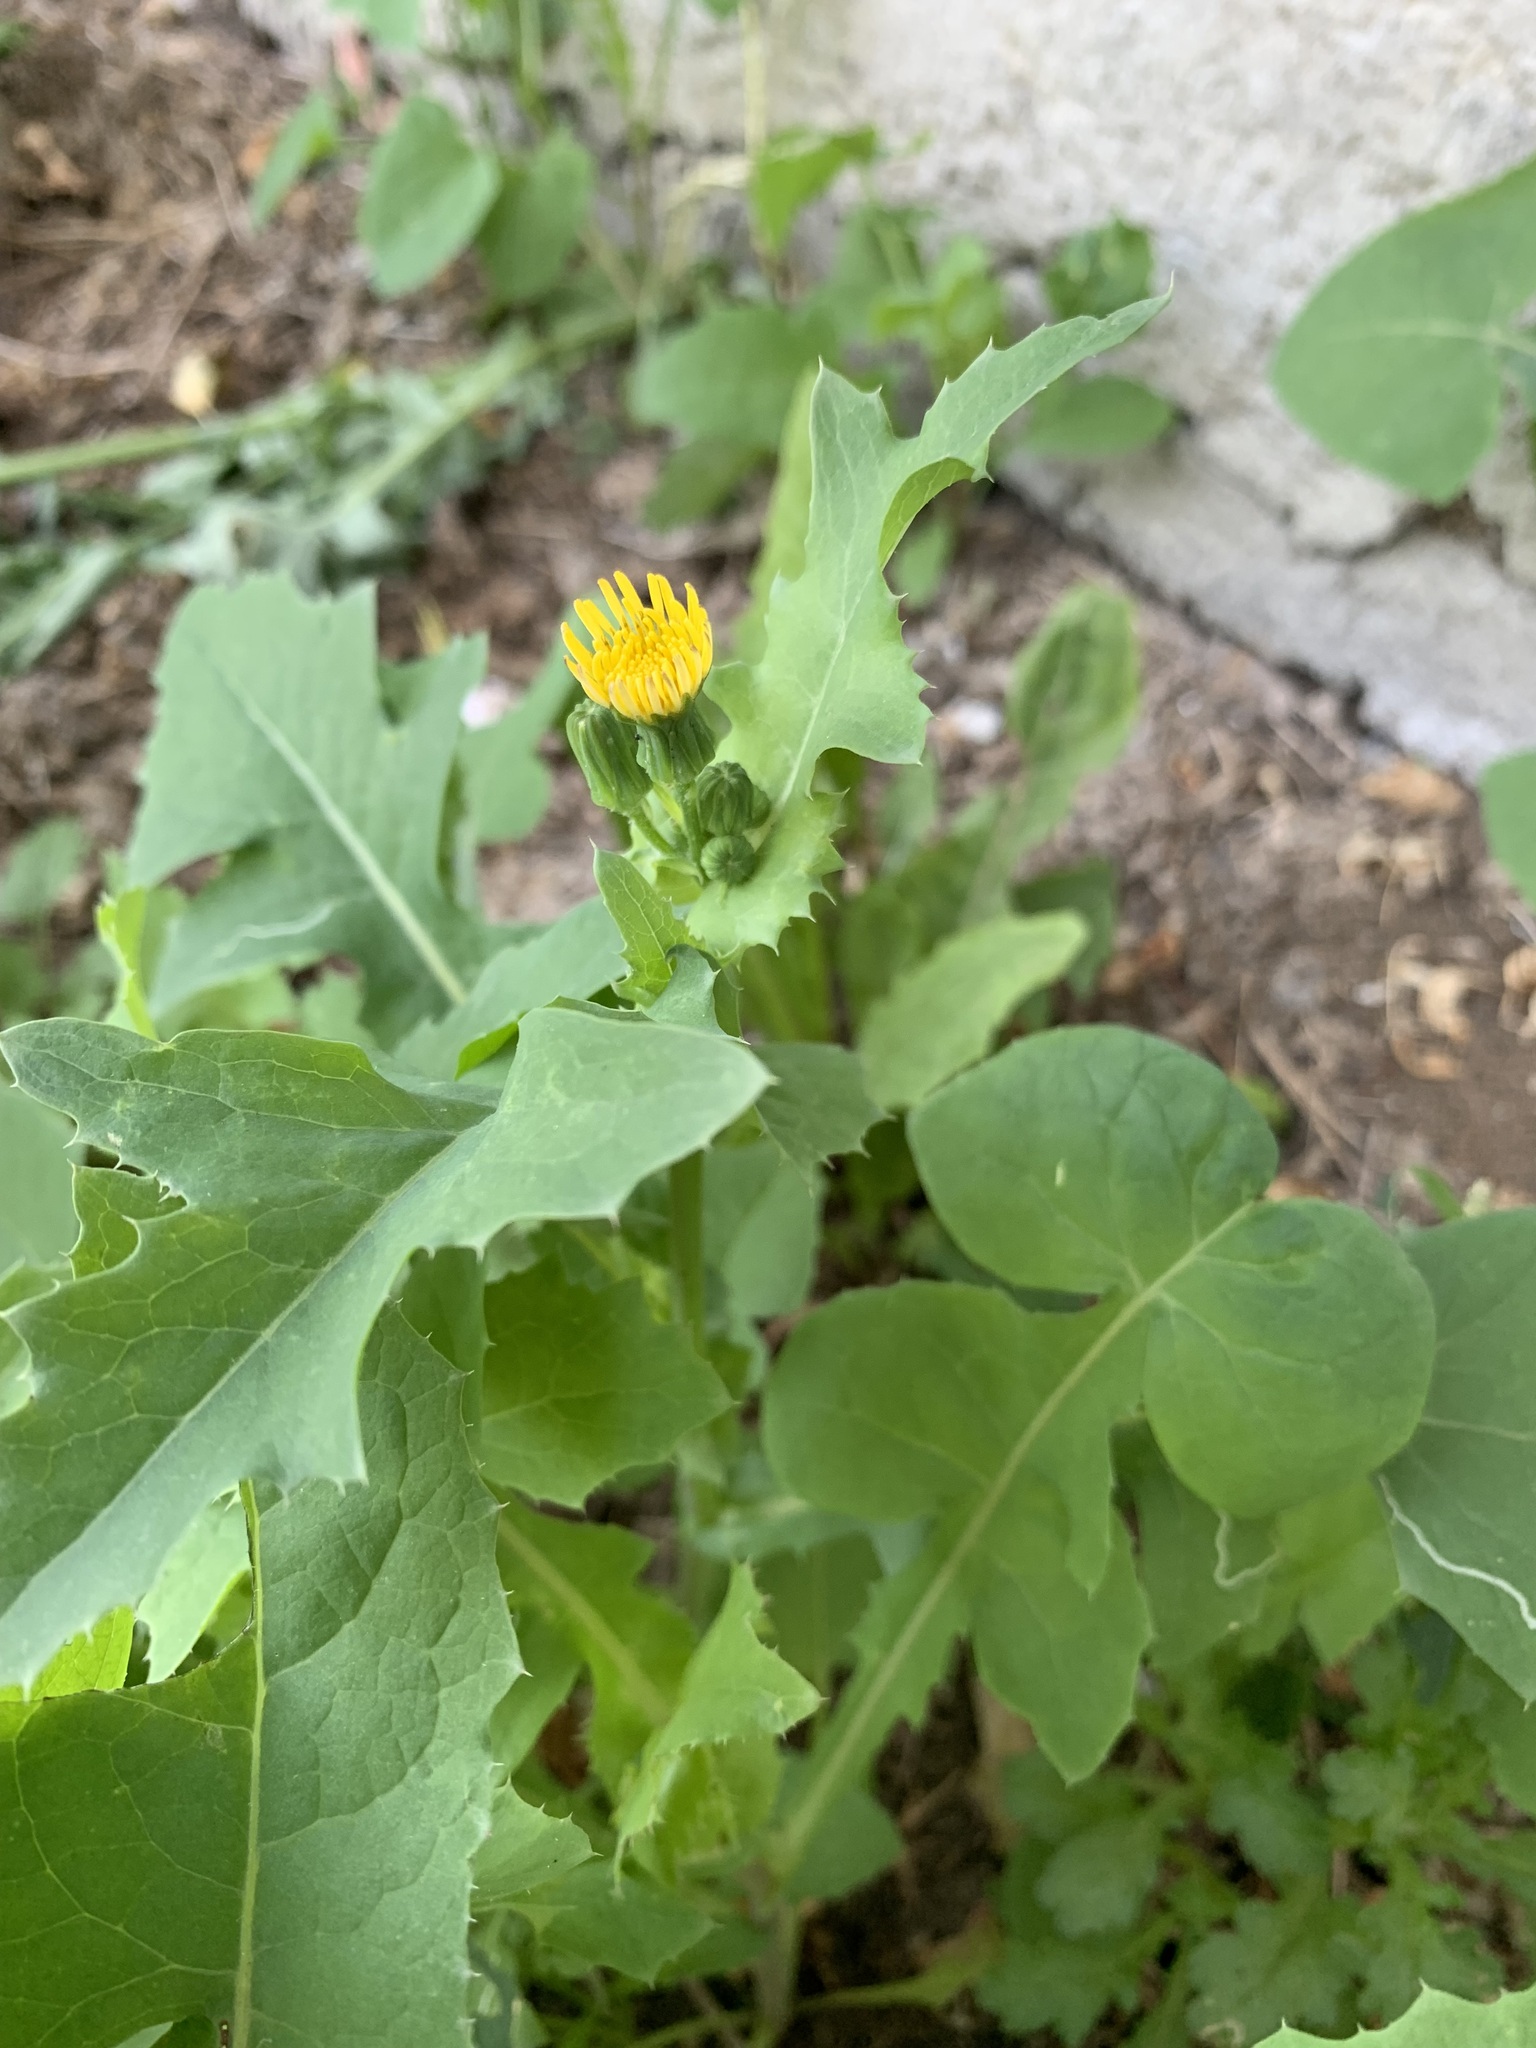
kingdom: Plantae
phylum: Tracheophyta
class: Magnoliopsida
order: Asterales
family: Asteraceae
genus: Sonchus
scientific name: Sonchus oleraceus
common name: Common sowthistle
